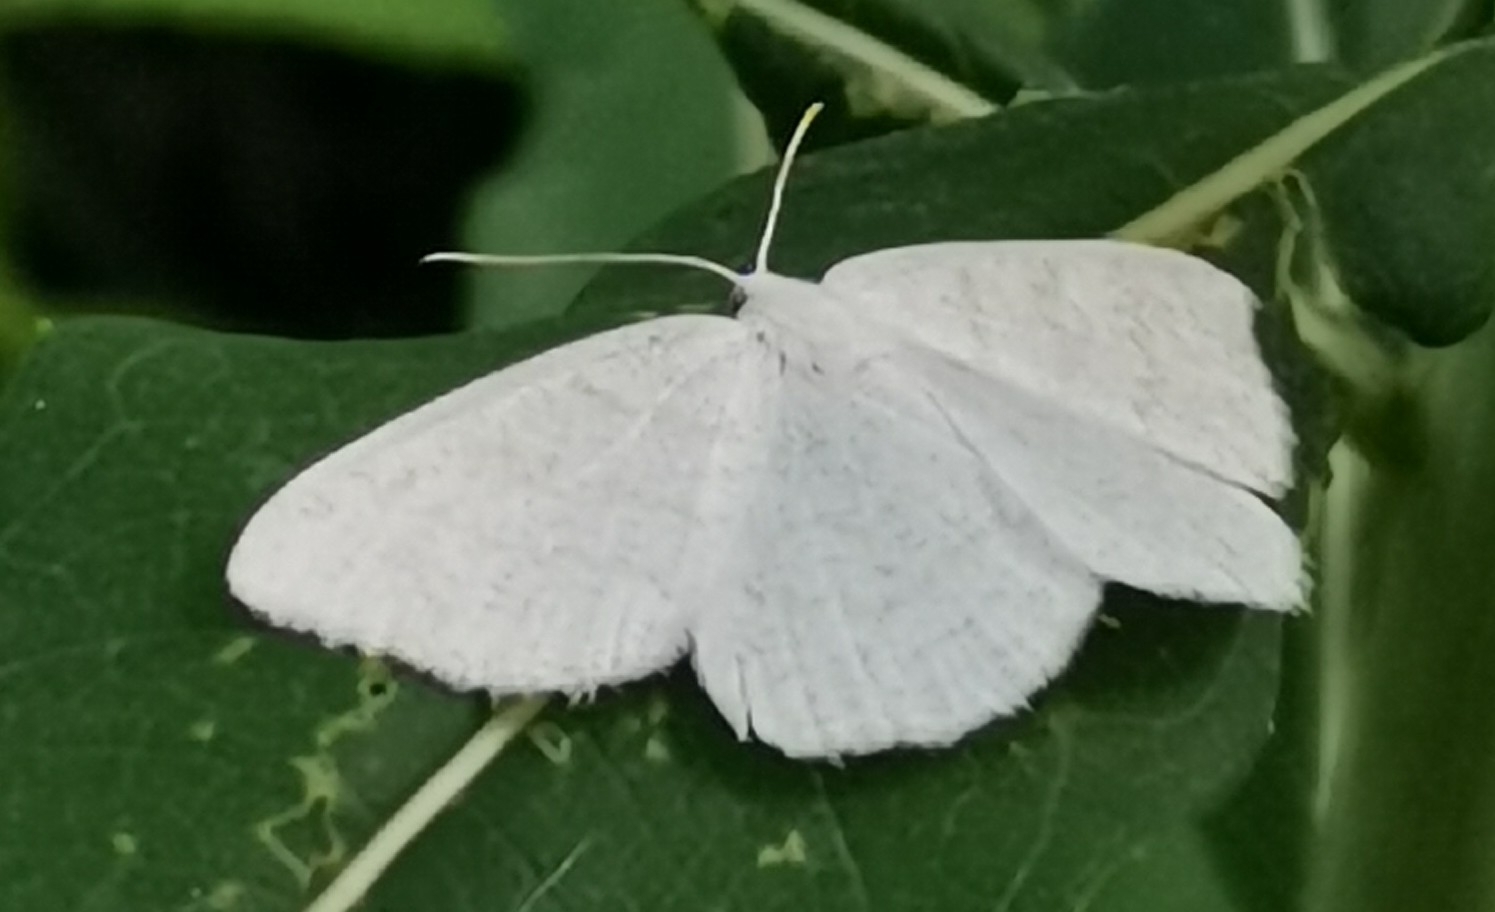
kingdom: Animalia
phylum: Arthropoda
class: Insecta
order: Lepidoptera
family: Geometridae
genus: Cabera
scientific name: Cabera pusaria
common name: Common white wave
